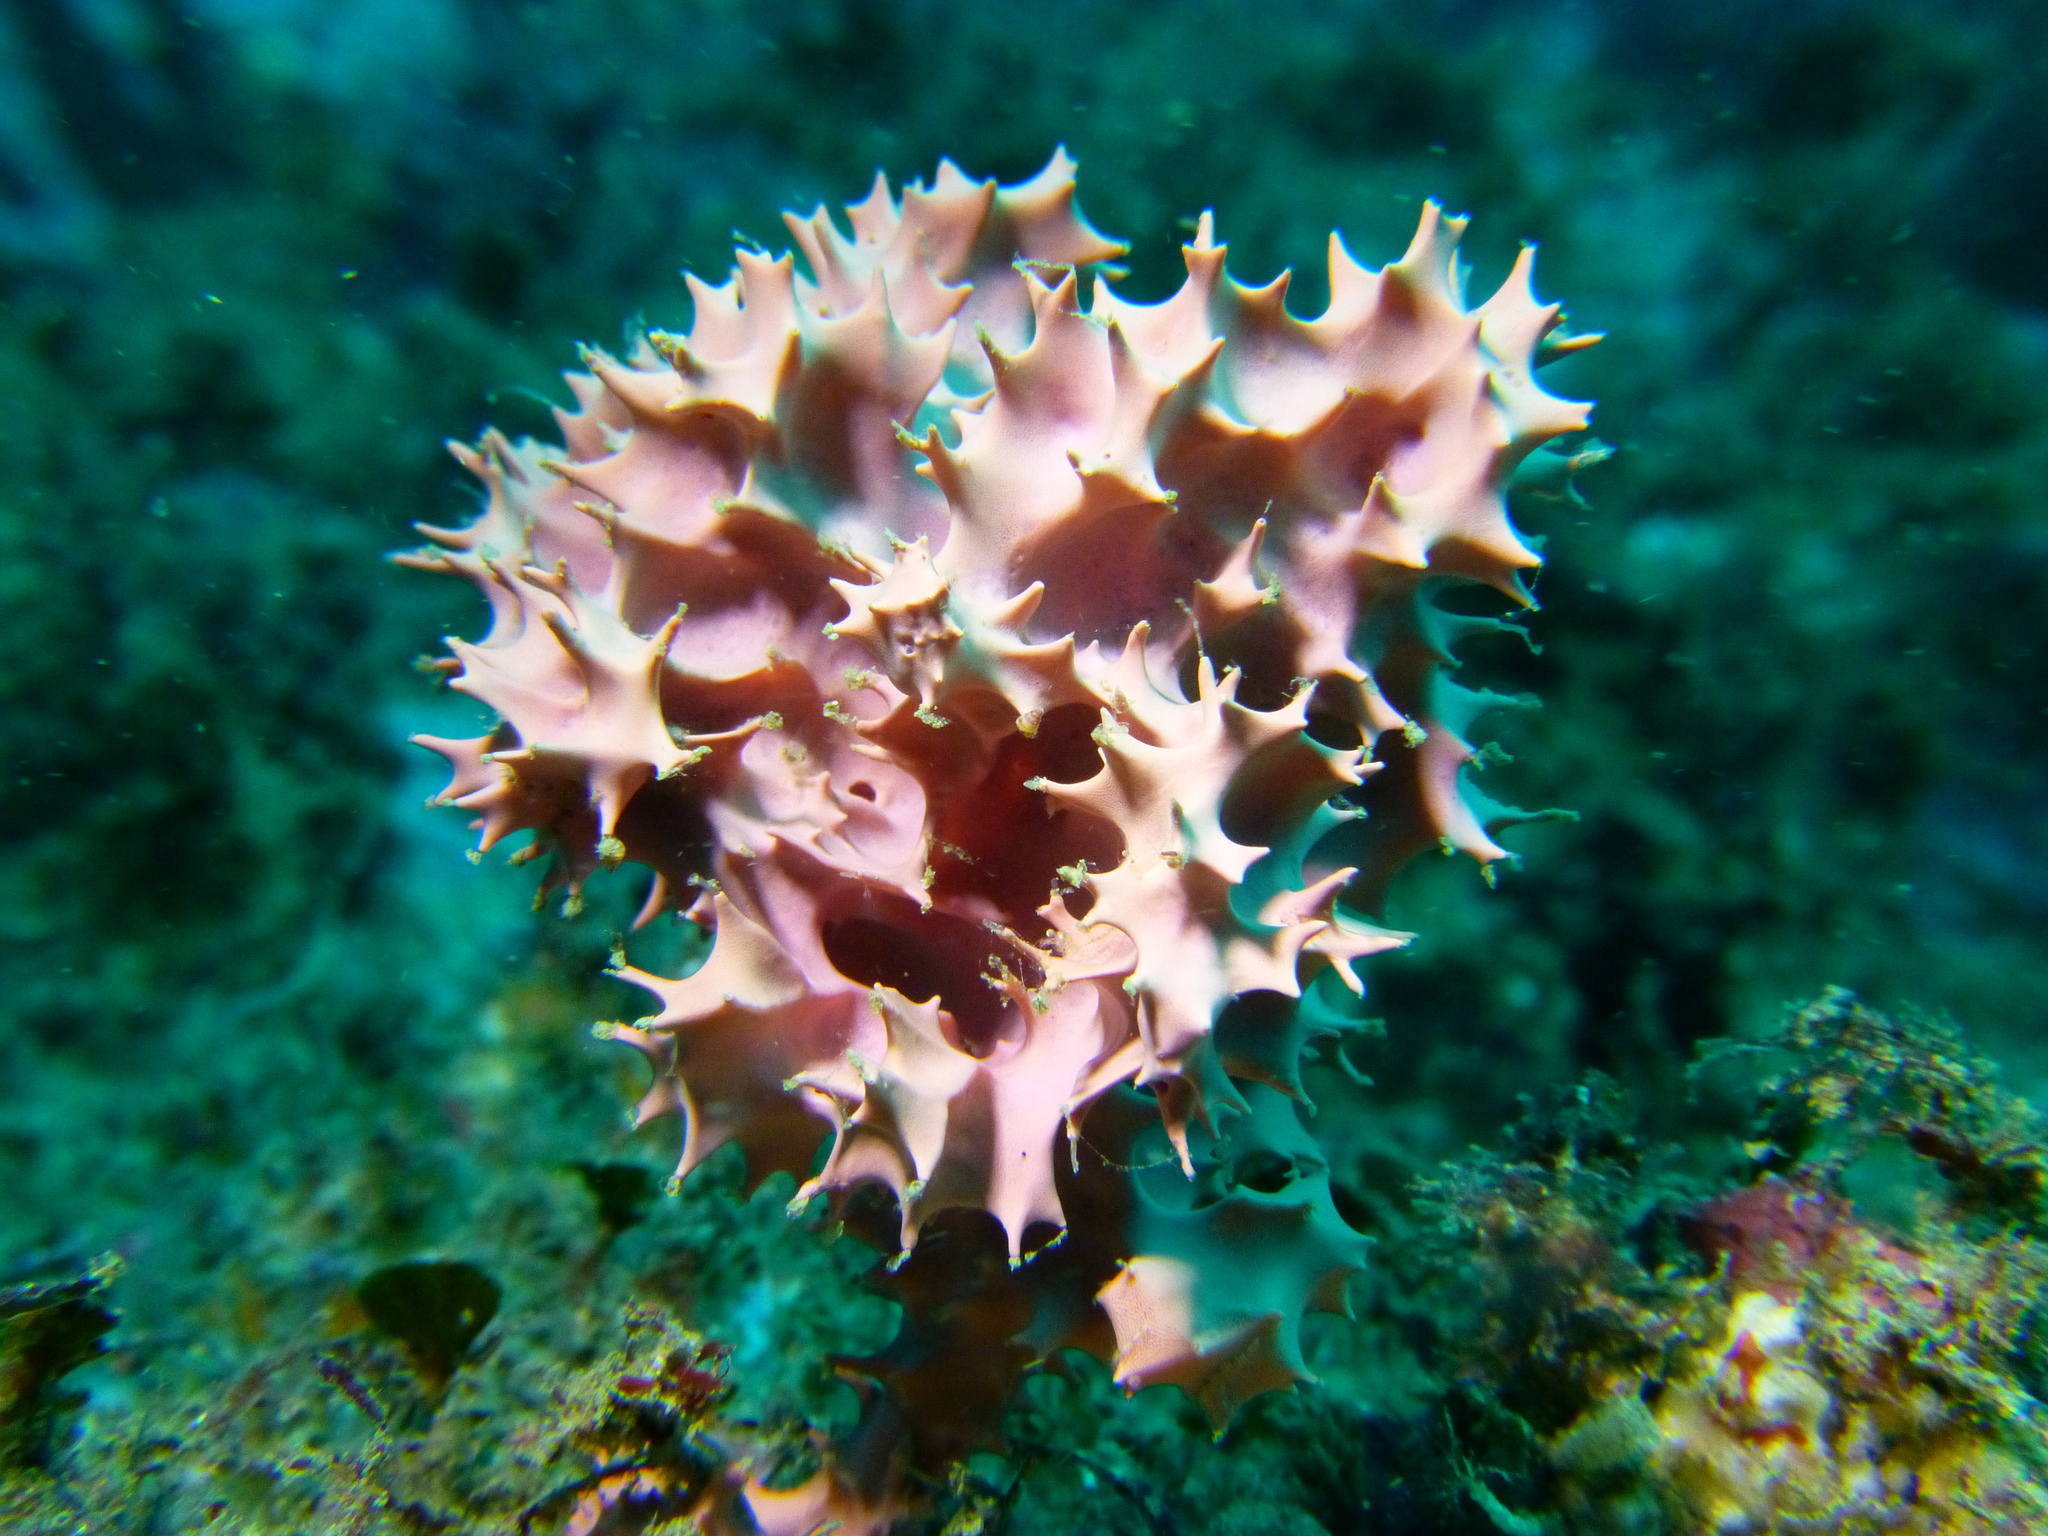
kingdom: Animalia
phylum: Porifera
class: Demospongiae
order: Dendroceratida
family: Darwinellidae
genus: Dendrilla
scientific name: Dendrilla cactos
